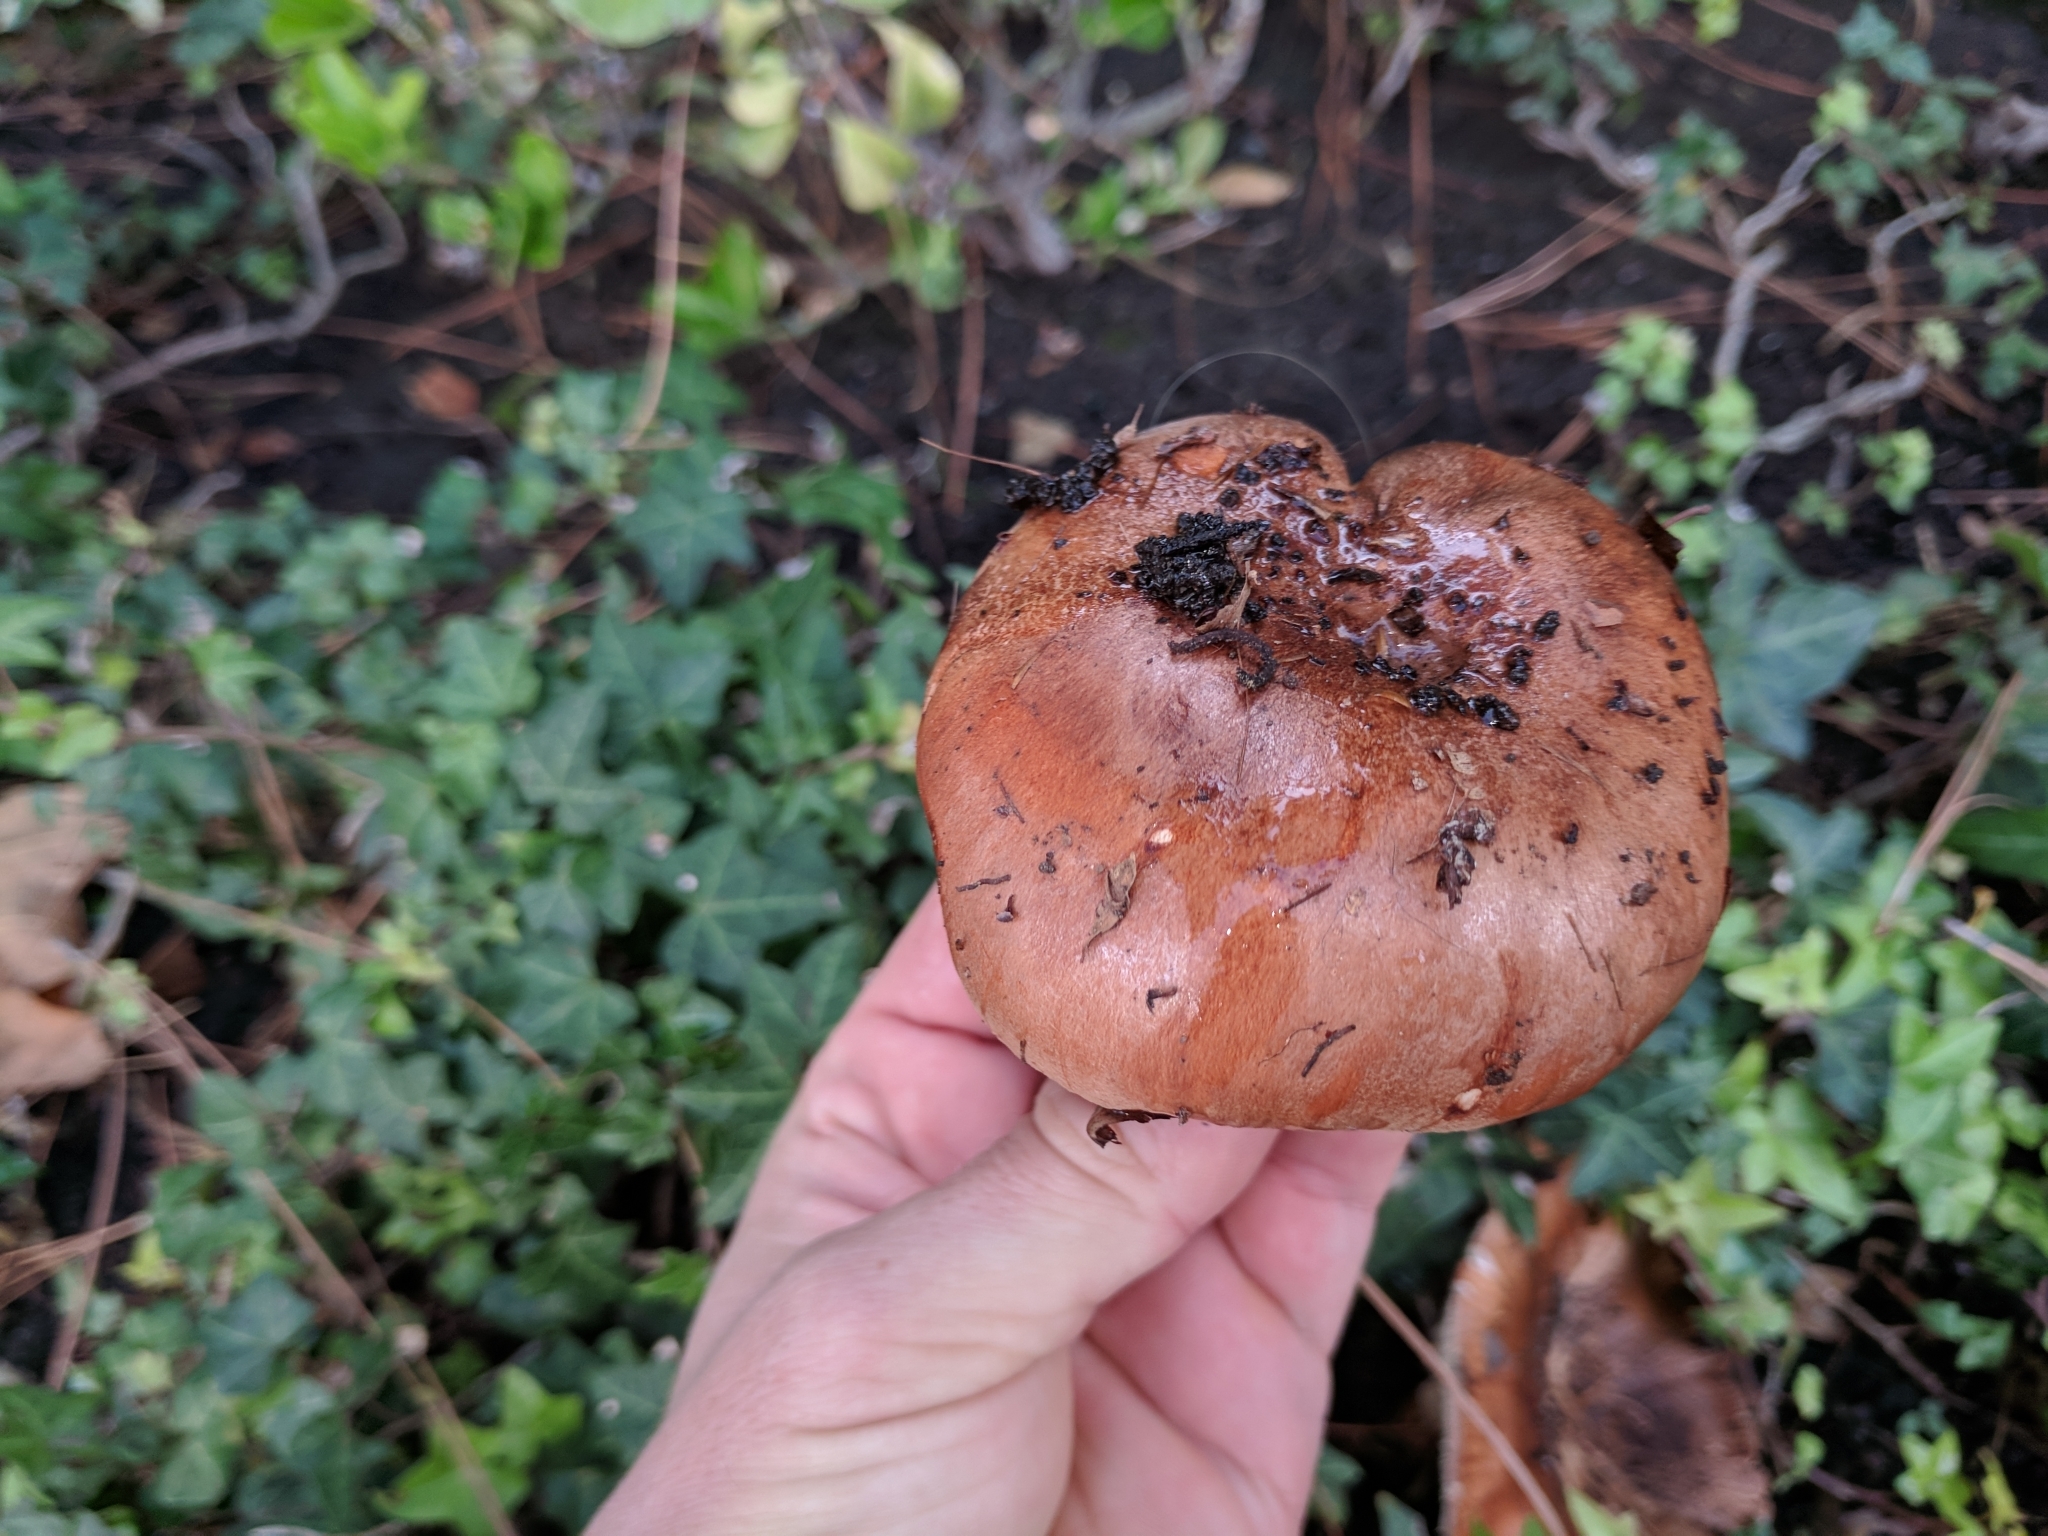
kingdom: Fungi
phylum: Basidiomycota
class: Agaricomycetes
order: Agaricales
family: Tricholomataceae
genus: Tricholoma
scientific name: Tricholoma fracticum
